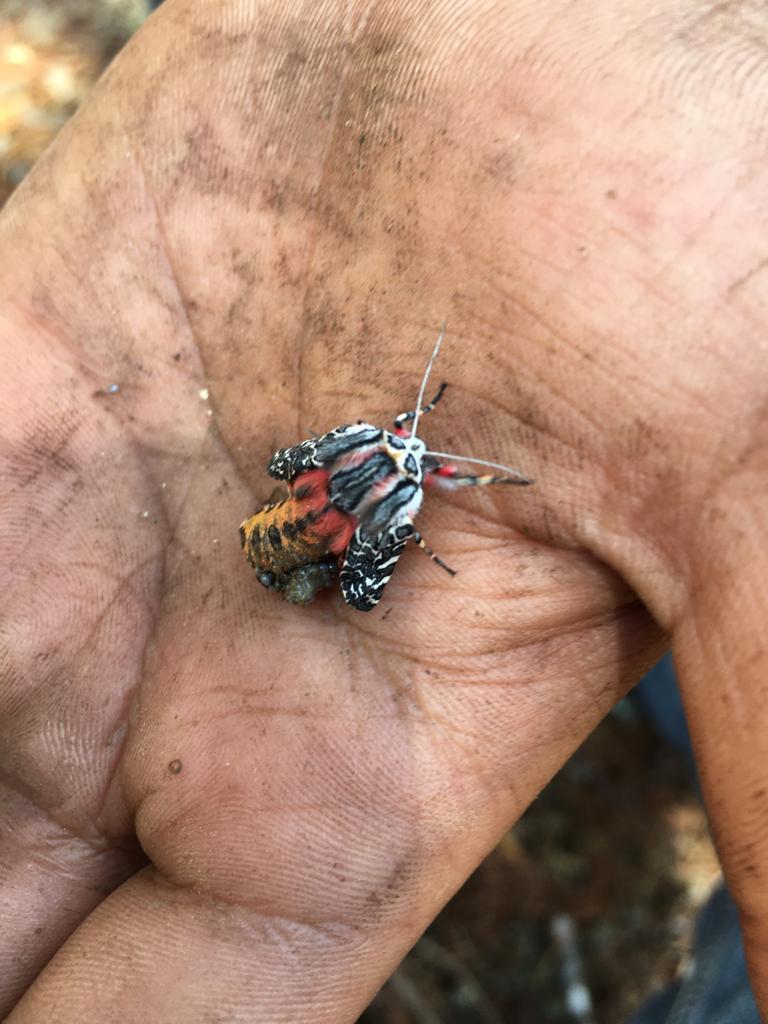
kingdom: Animalia
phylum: Arthropoda
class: Insecta
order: Lepidoptera
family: Erebidae
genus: Arachnis
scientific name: Arachnis picta
